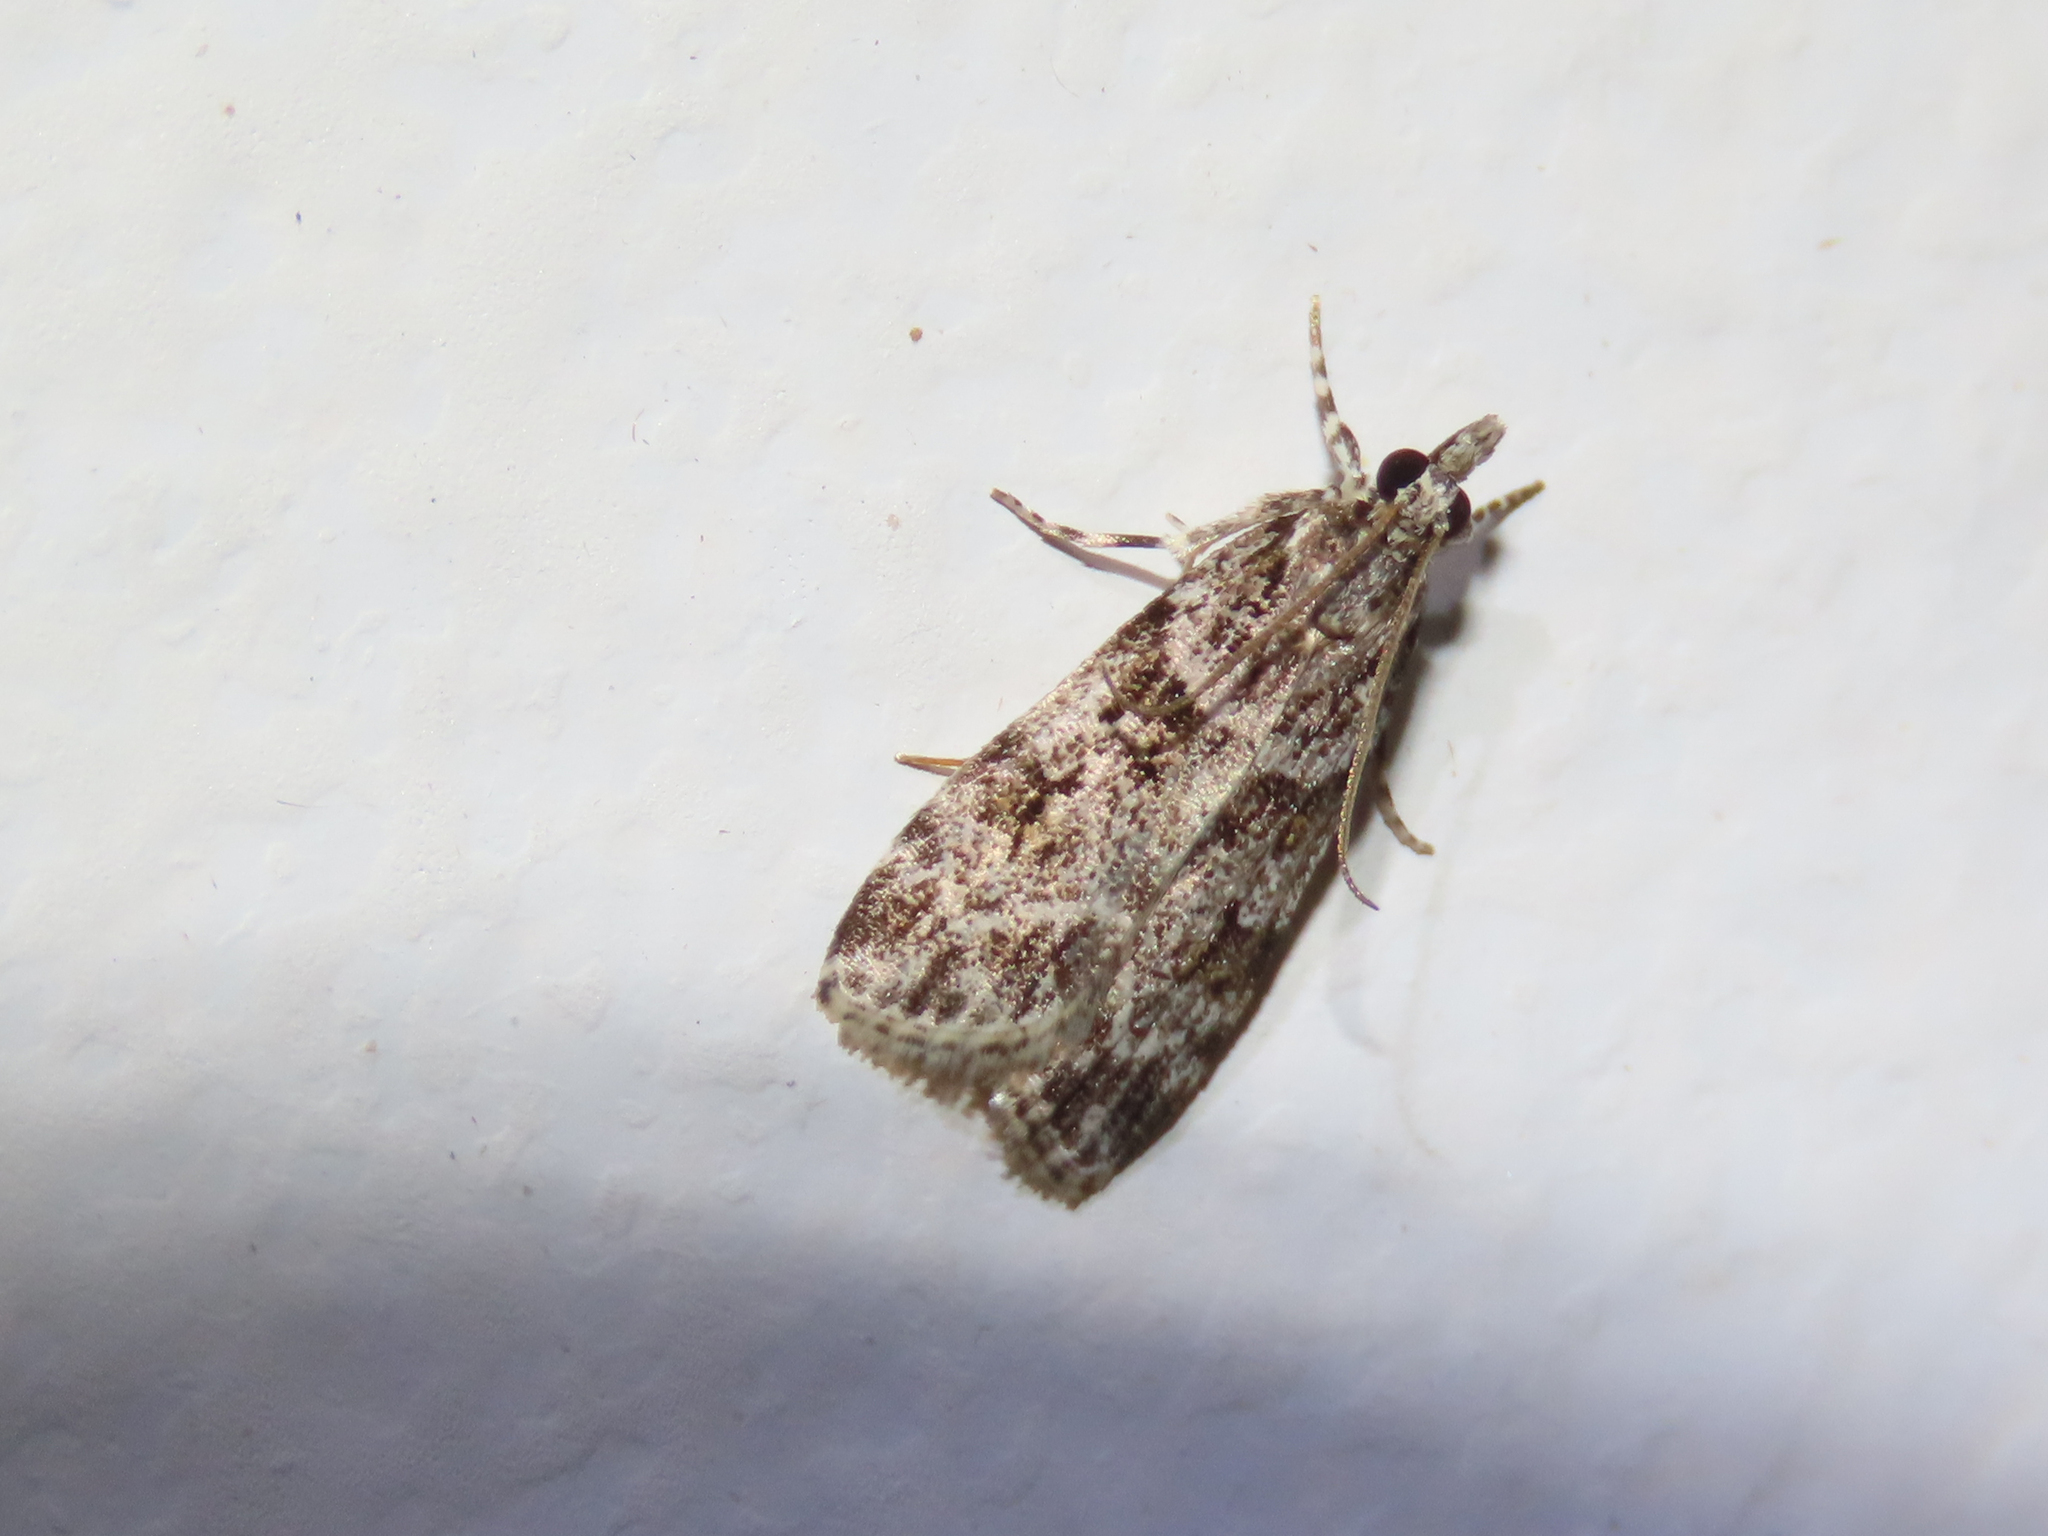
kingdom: Animalia
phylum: Arthropoda
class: Insecta
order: Lepidoptera
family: Crambidae
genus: Scoparia
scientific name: Scoparia biplagialis
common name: Double-striped scoparia moth
